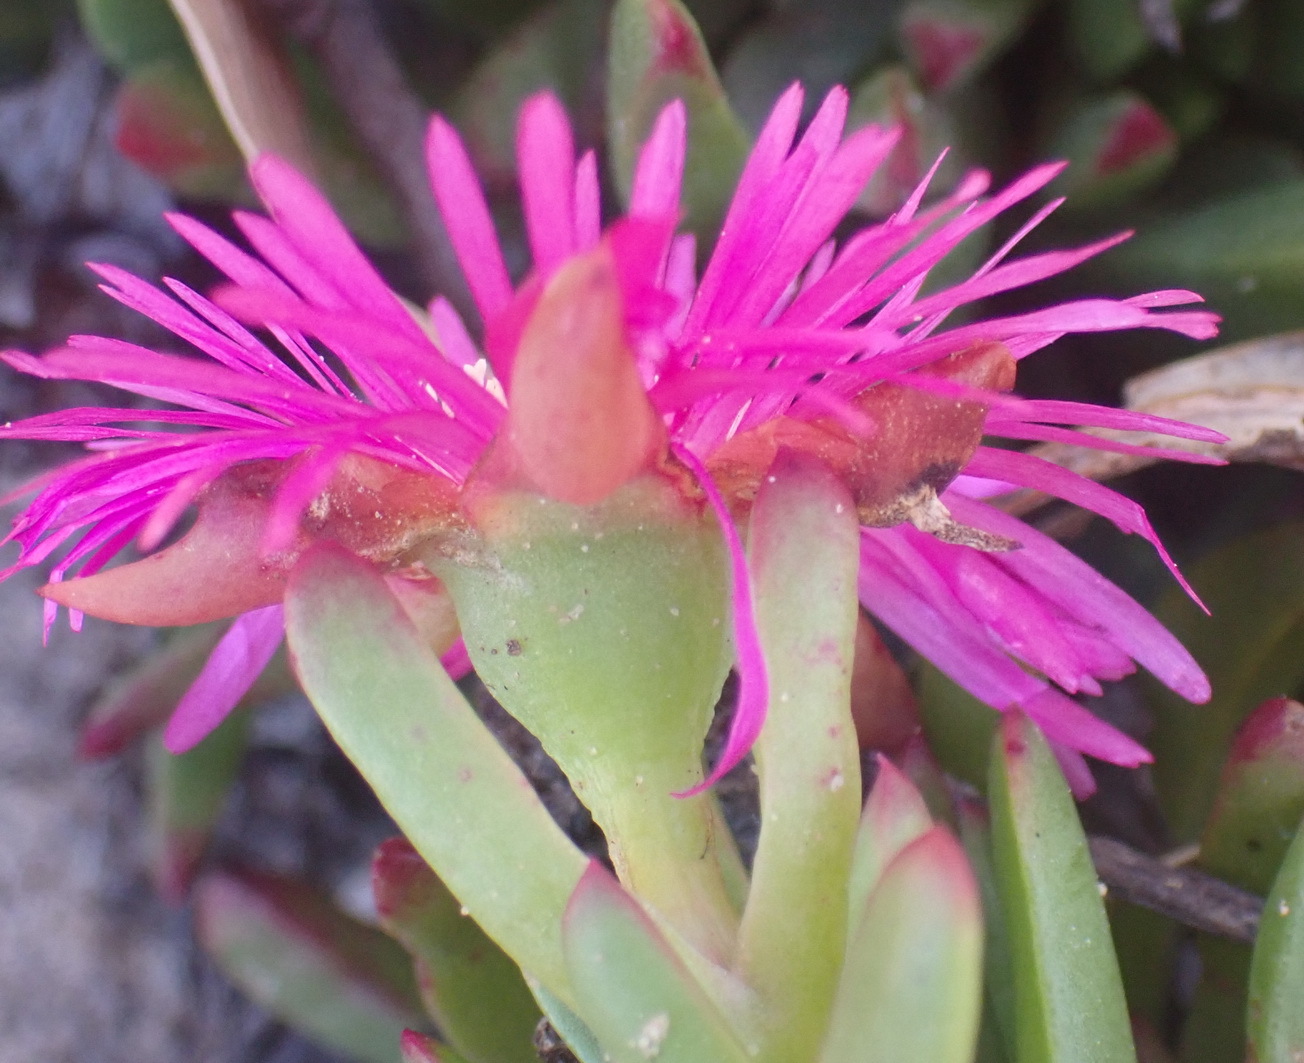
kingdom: Plantae
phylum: Tracheophyta
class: Magnoliopsida
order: Caryophyllales
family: Aizoaceae
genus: Ruschia
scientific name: Ruschia duthiae
